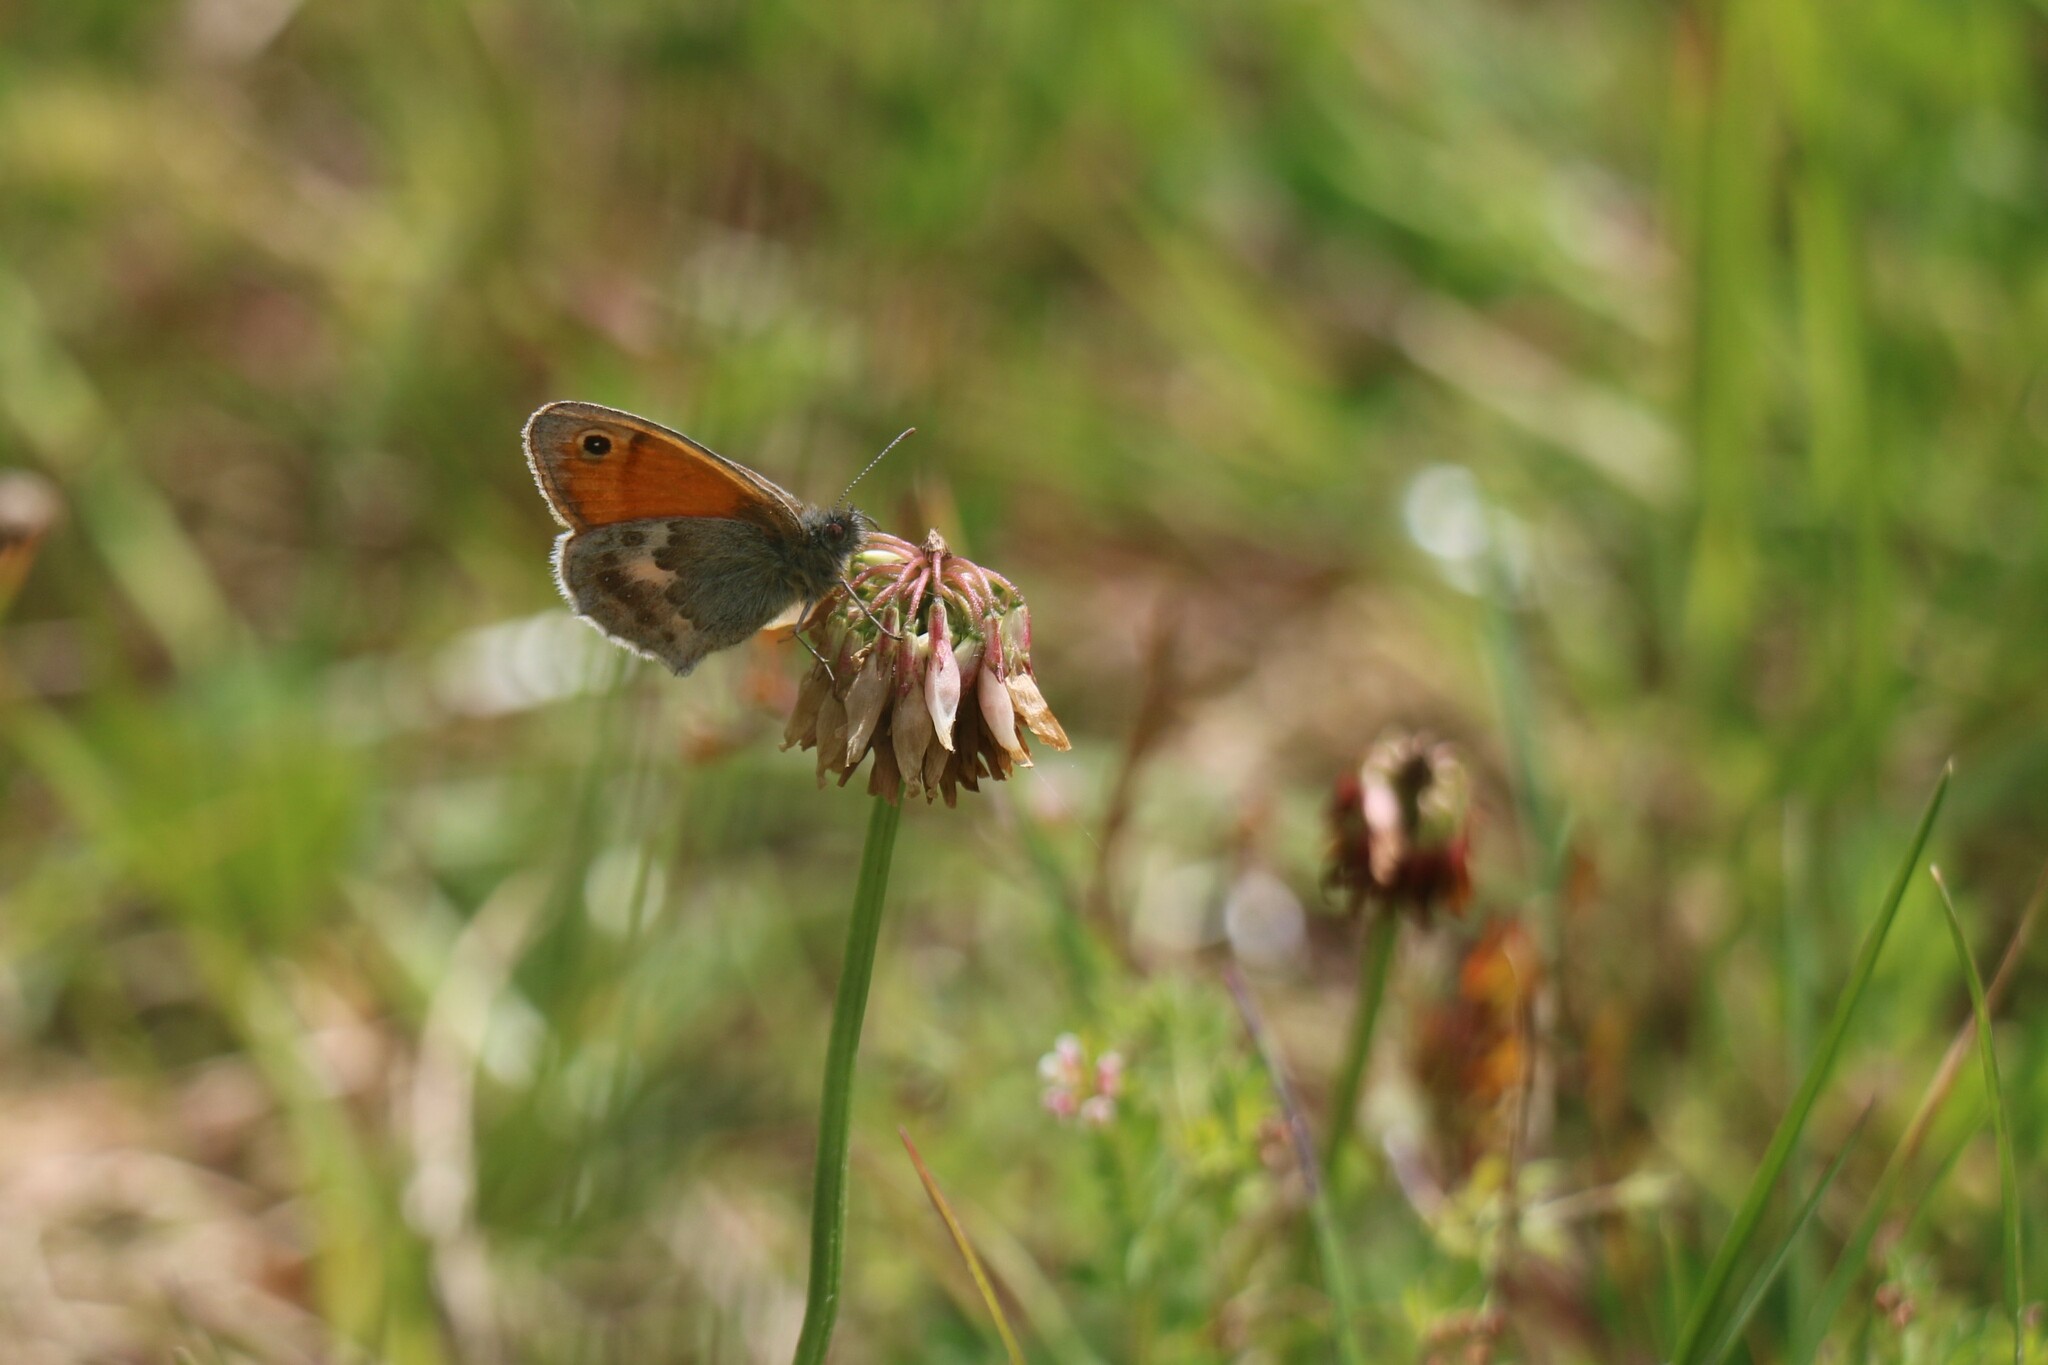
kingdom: Animalia
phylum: Arthropoda
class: Insecta
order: Lepidoptera
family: Nymphalidae
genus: Coenonympha
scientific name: Coenonympha pamphilus
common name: Small heath
